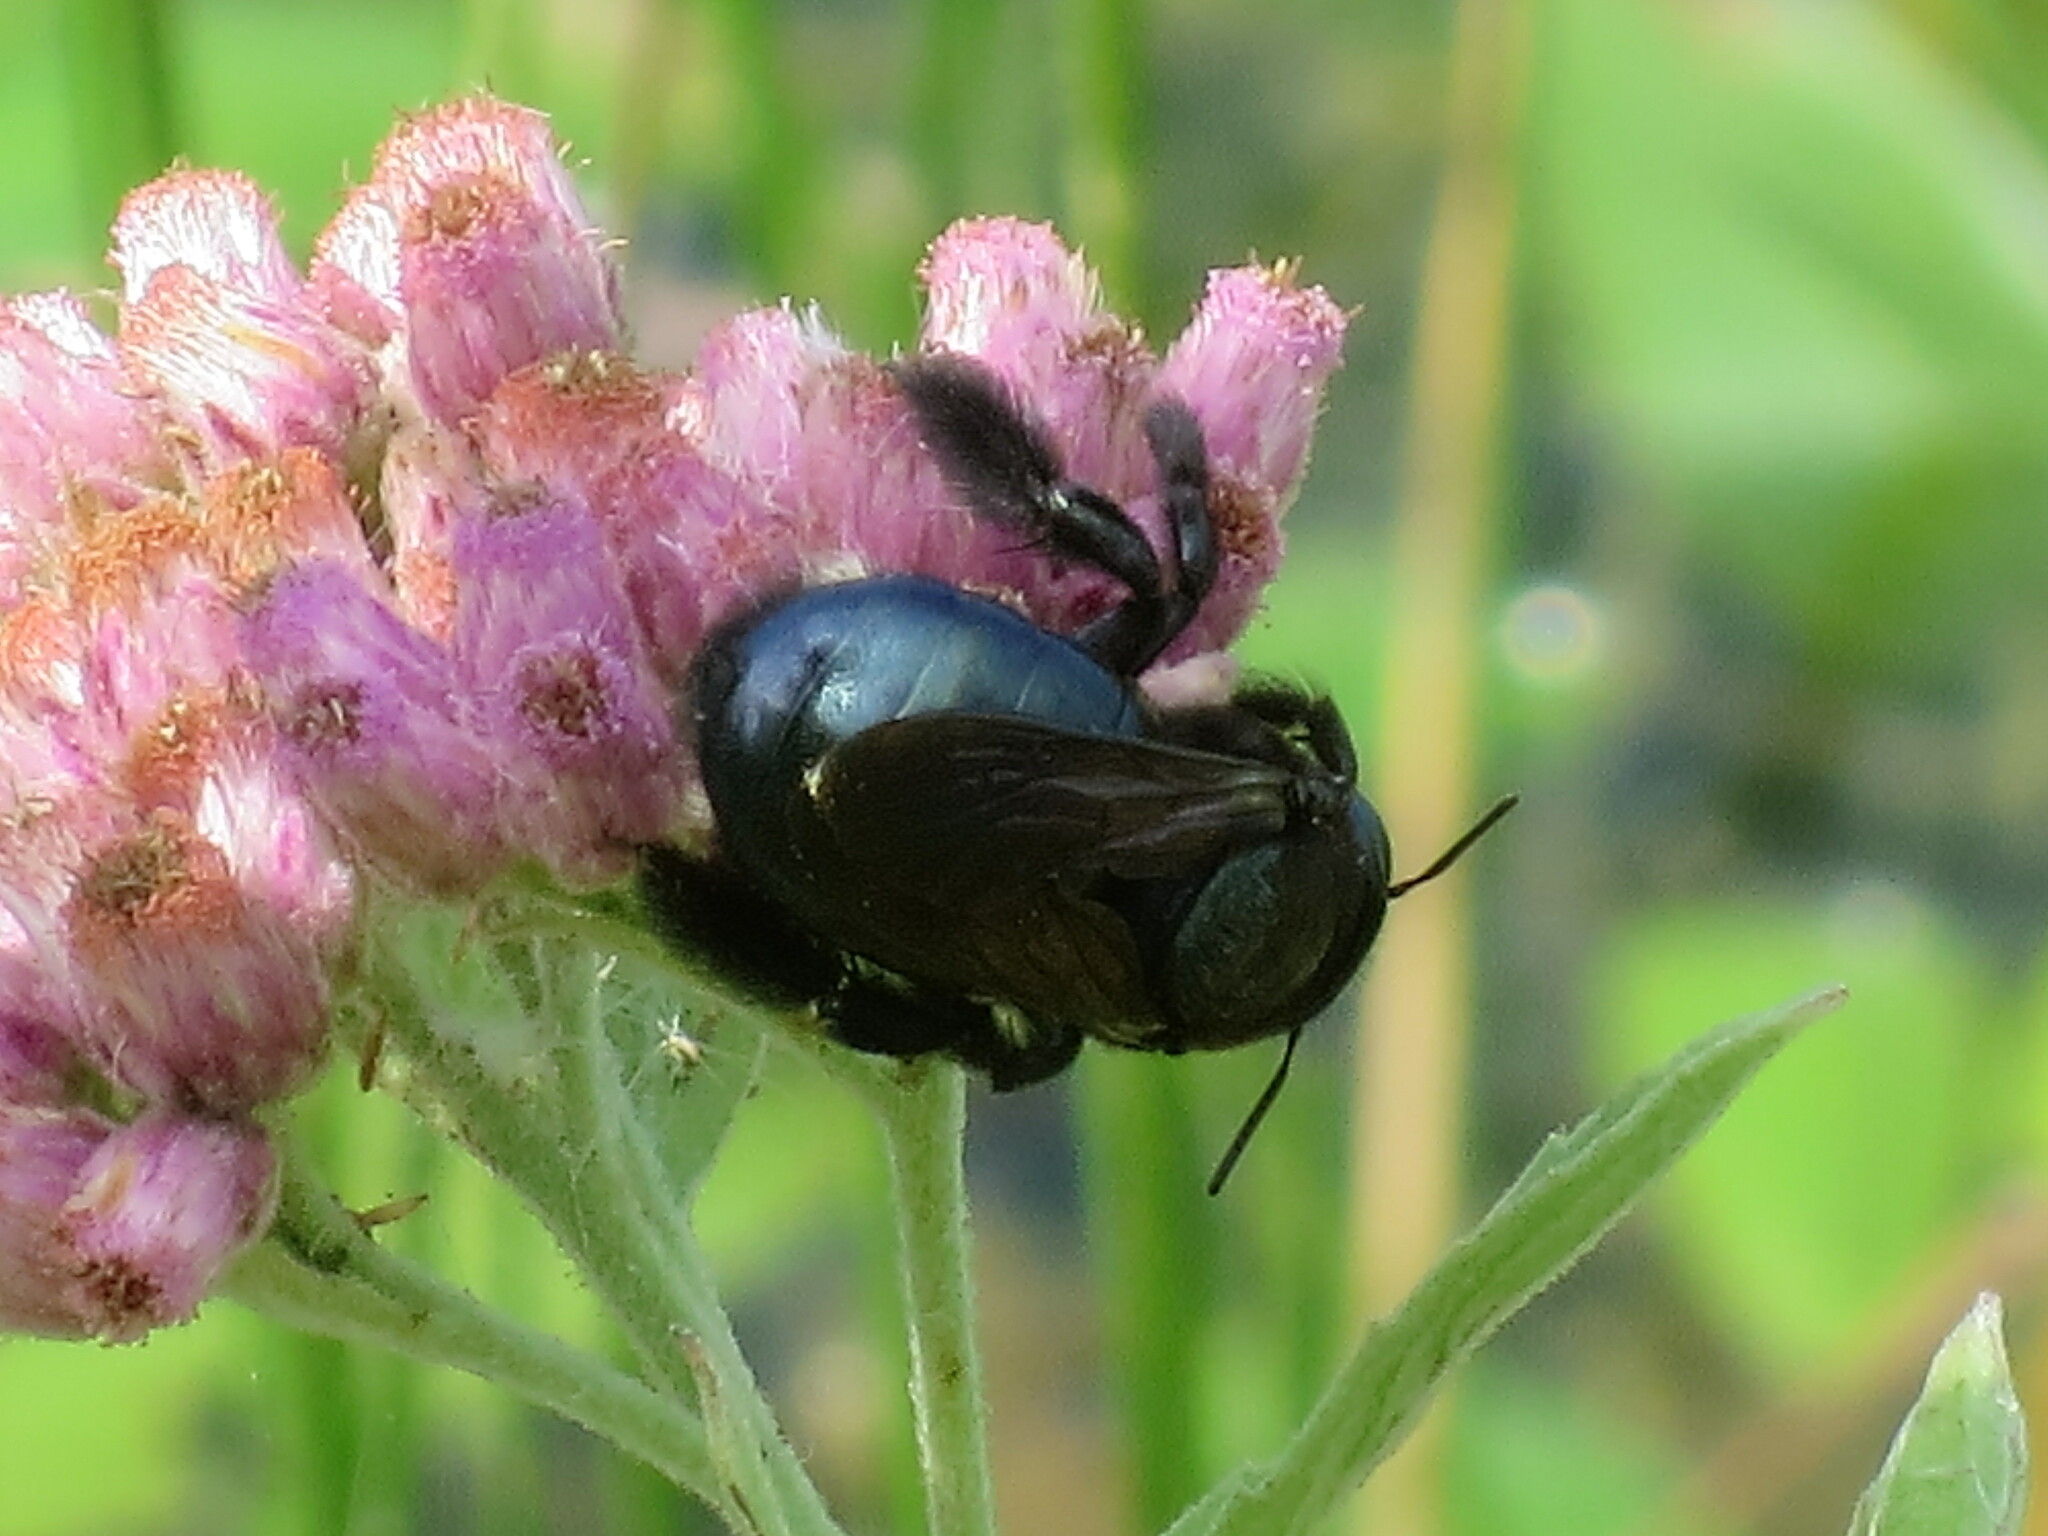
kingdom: Animalia
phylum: Arthropoda
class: Insecta
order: Hymenoptera
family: Apidae
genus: Xylocopa
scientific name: Xylocopa micans
